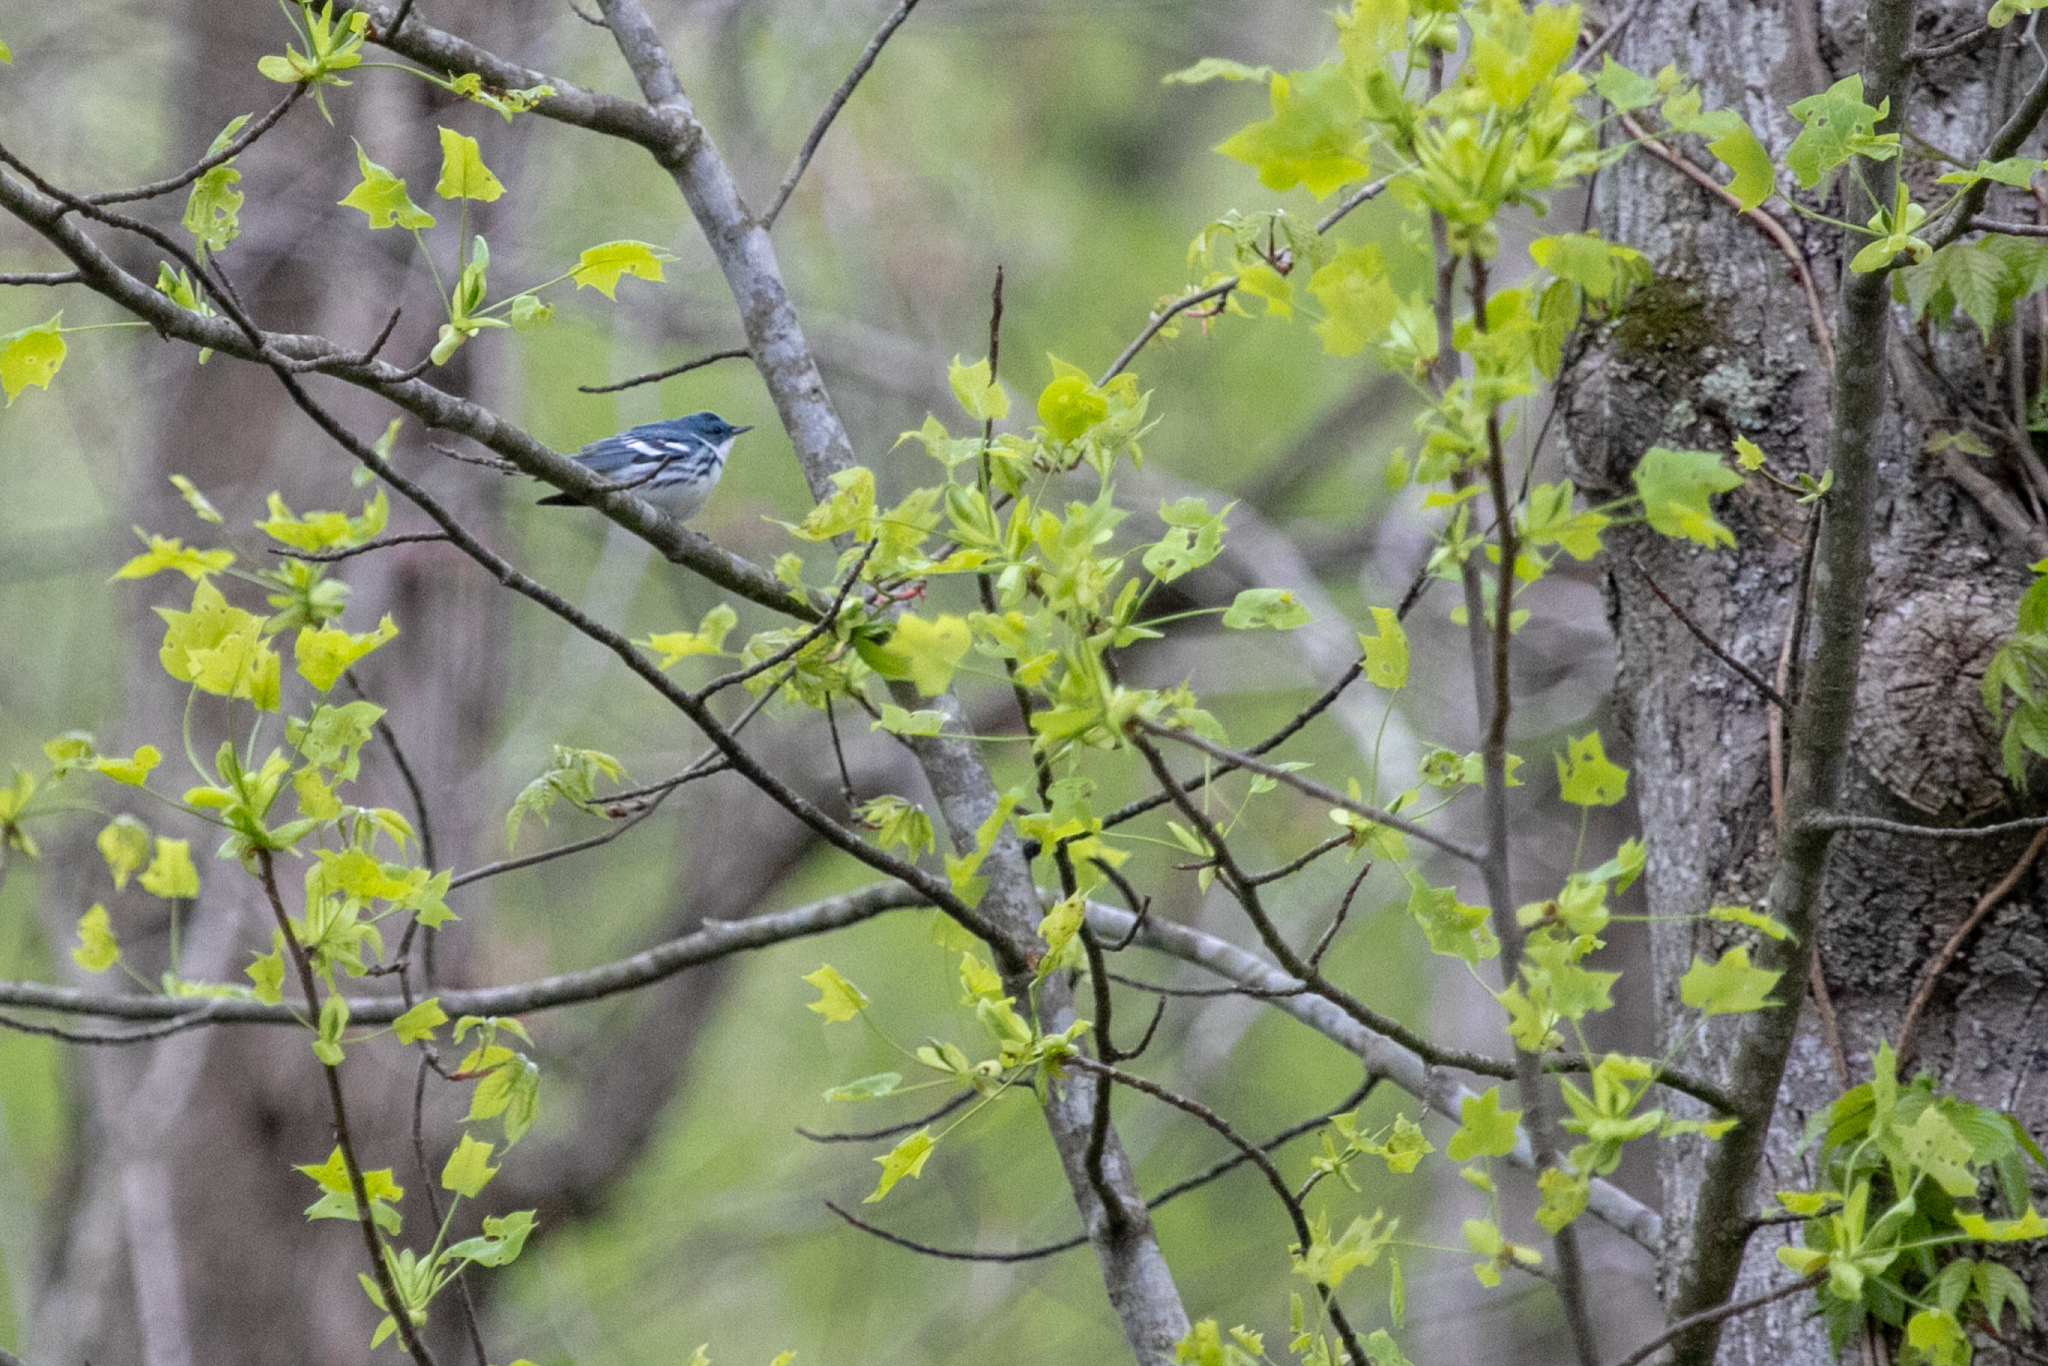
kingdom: Animalia
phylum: Chordata
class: Aves
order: Passeriformes
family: Parulidae
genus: Setophaga
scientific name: Setophaga cerulea
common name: Cerulean warbler
